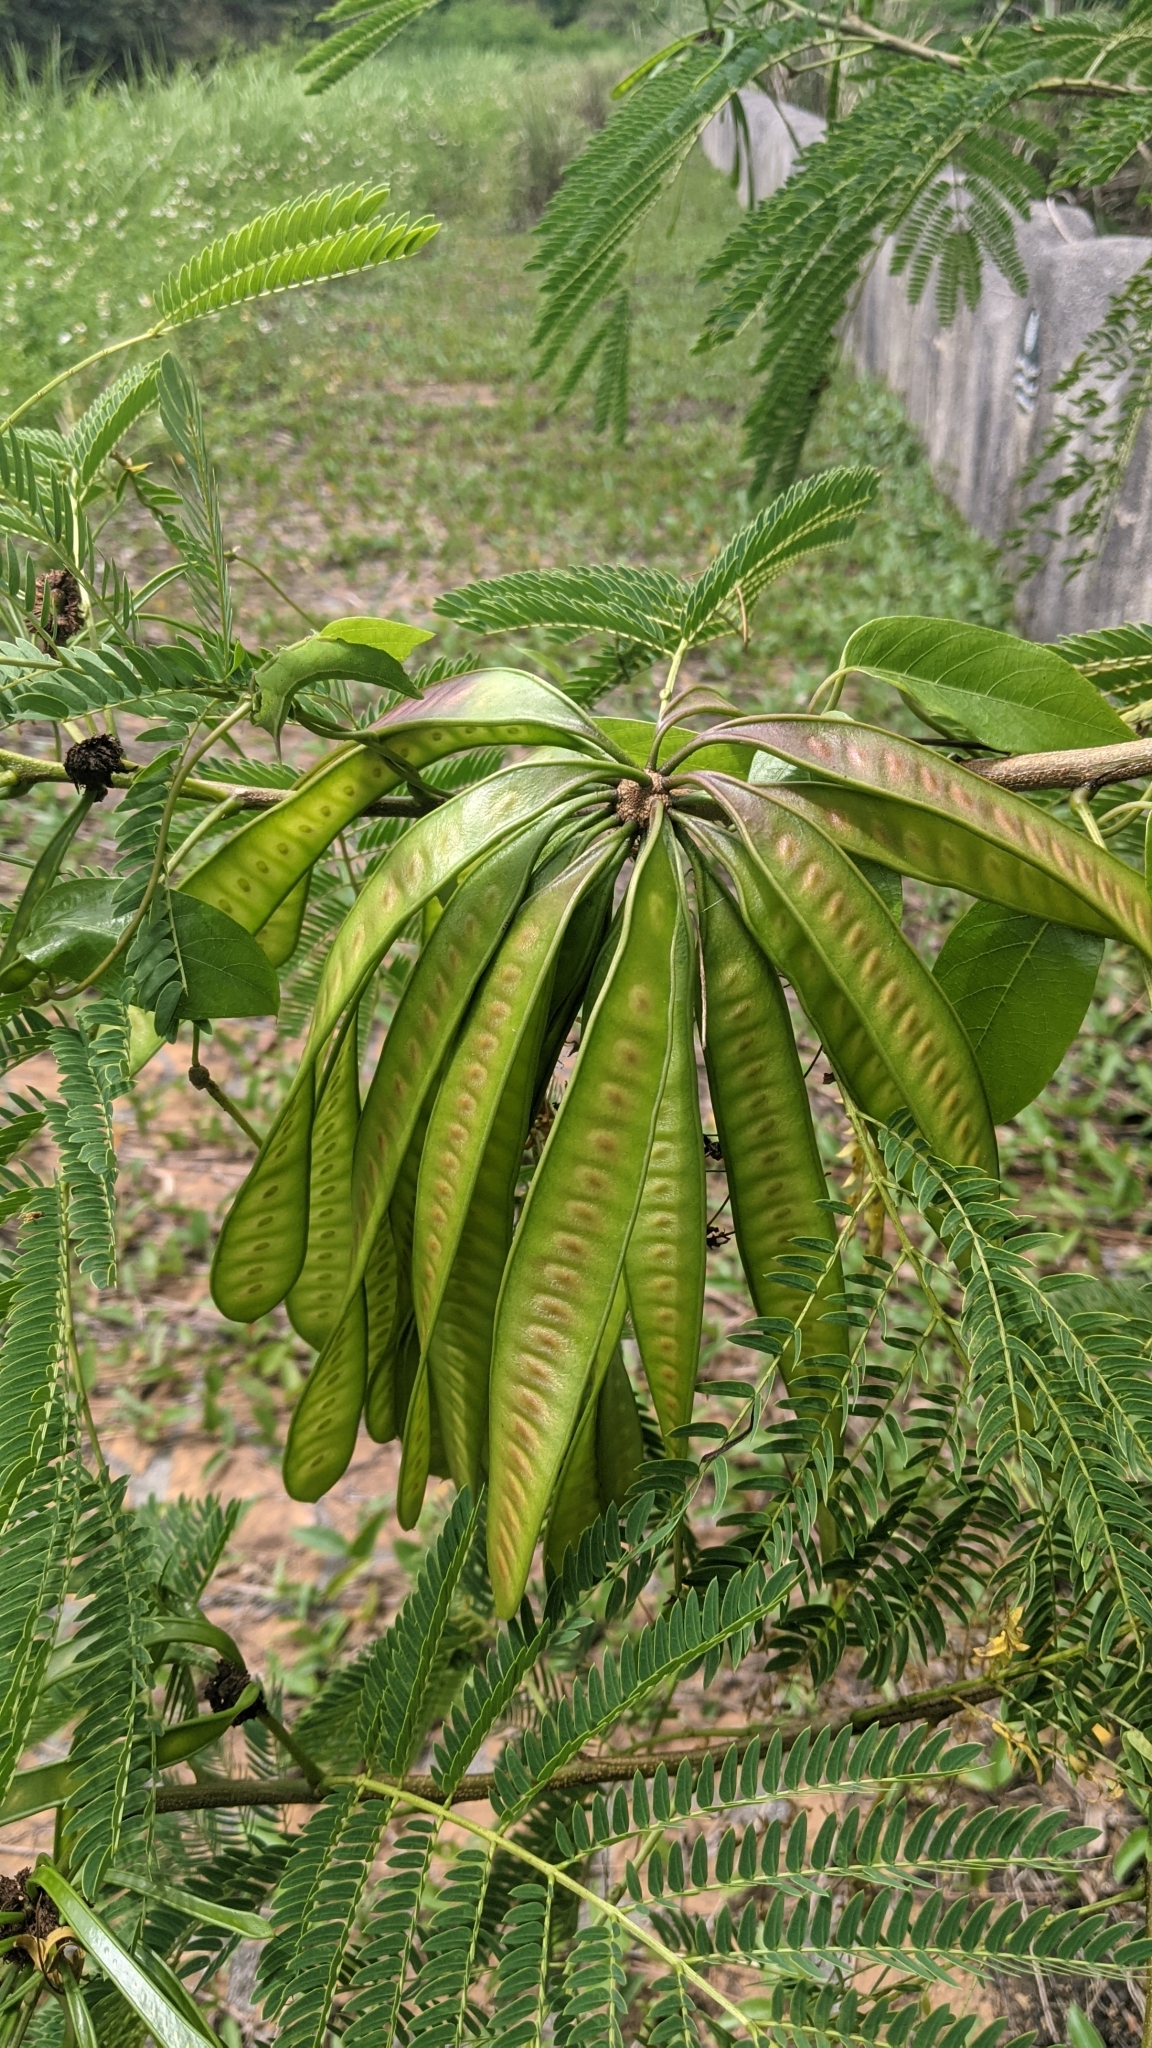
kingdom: Plantae
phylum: Tracheophyta
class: Magnoliopsida
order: Fabales
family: Fabaceae
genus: Leucaena
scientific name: Leucaena leucocephala
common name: White leadtree
